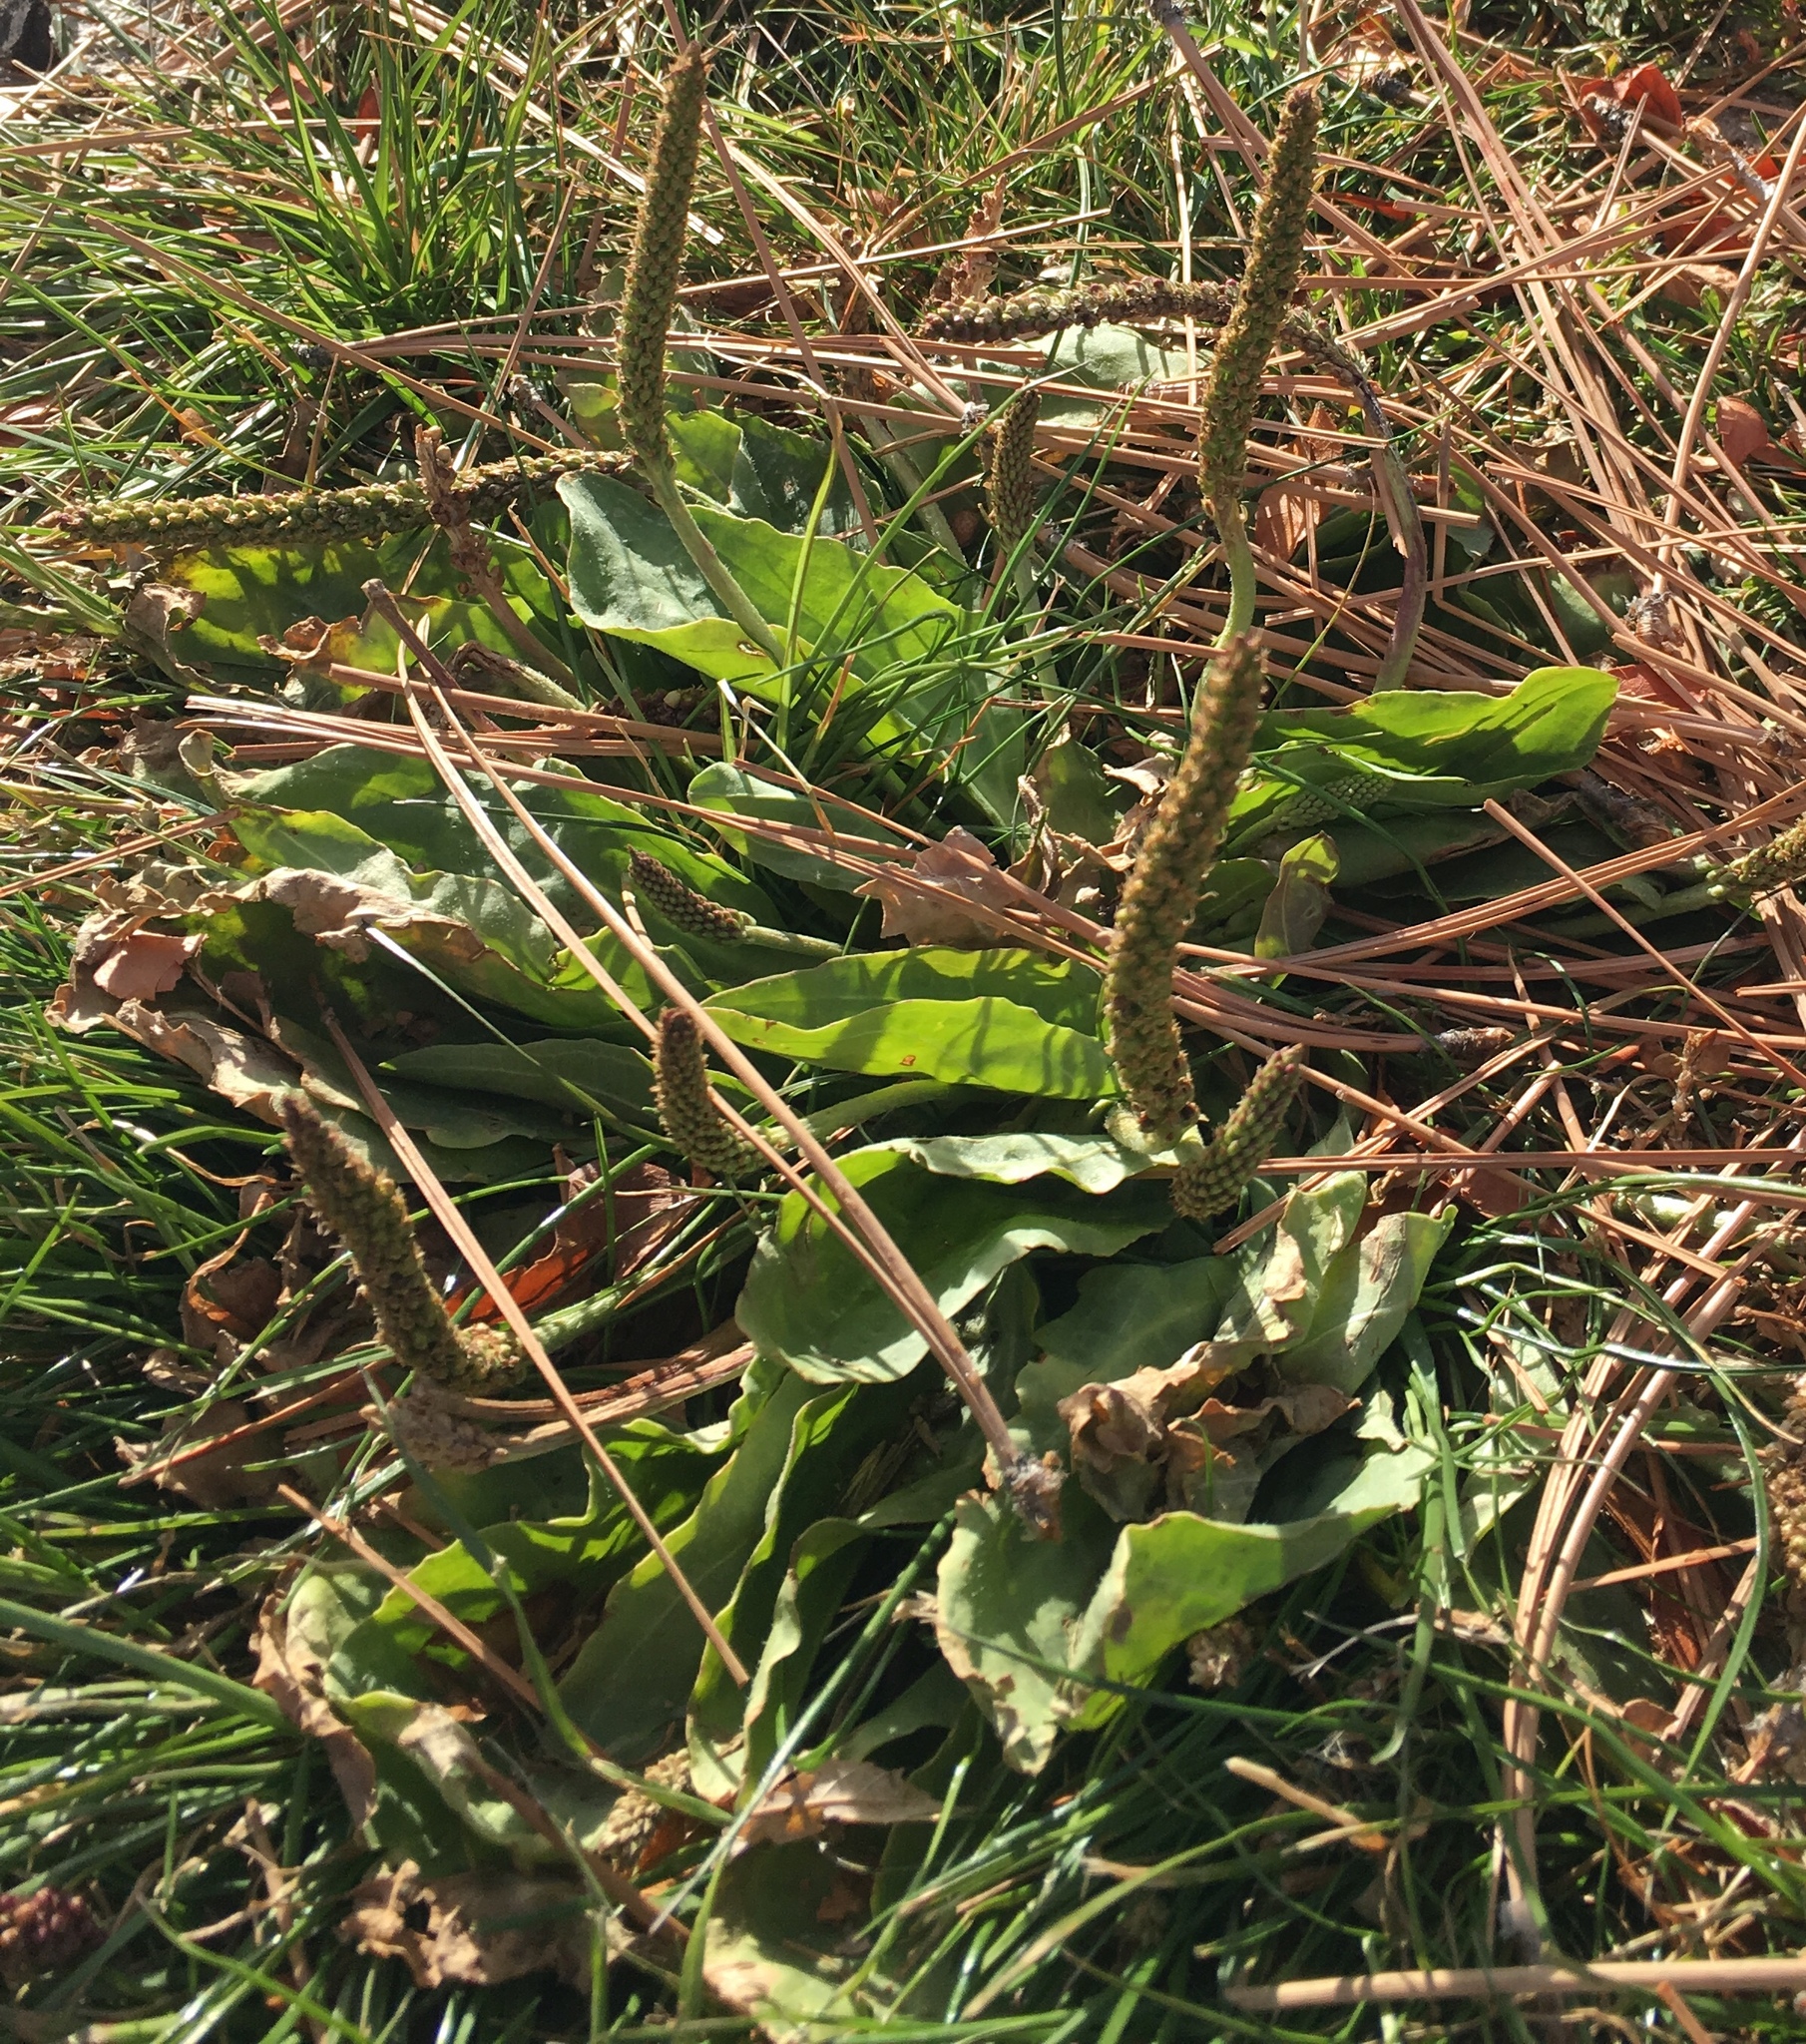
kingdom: Plantae
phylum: Tracheophyta
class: Magnoliopsida
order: Lamiales
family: Plantaginaceae
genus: Plantago
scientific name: Plantago major
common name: Common plantain
